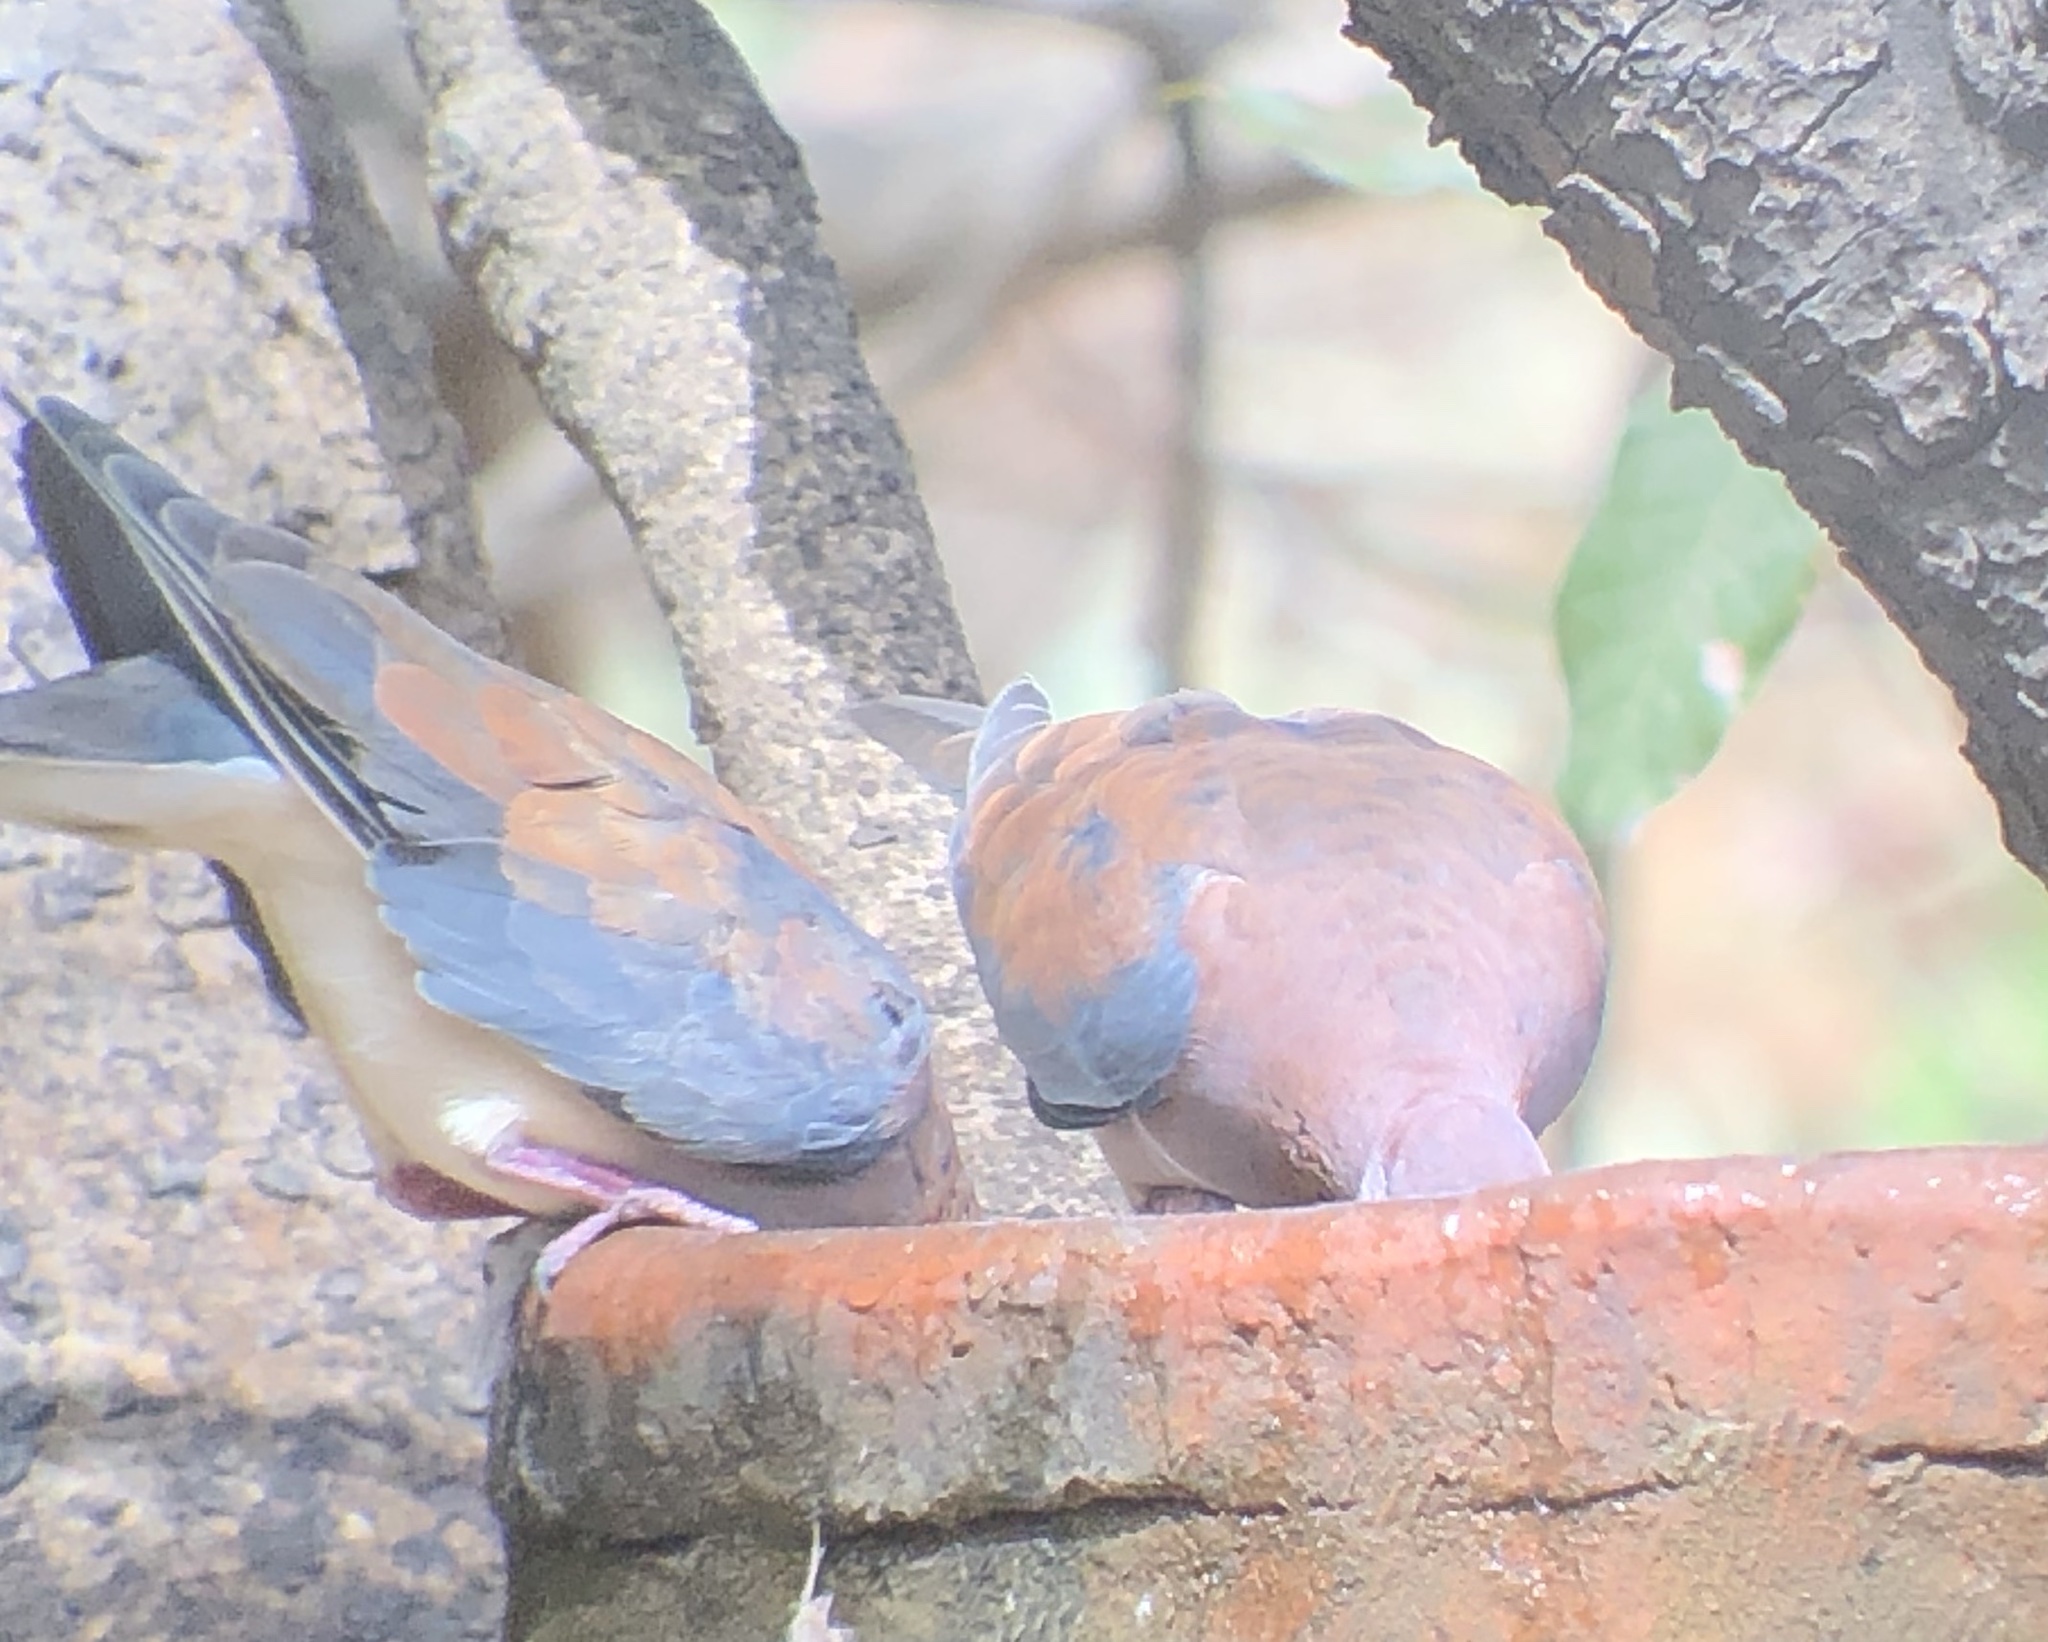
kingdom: Animalia
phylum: Chordata
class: Aves
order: Columbiformes
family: Columbidae
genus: Spilopelia
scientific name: Spilopelia senegalensis
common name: Laughing dove
